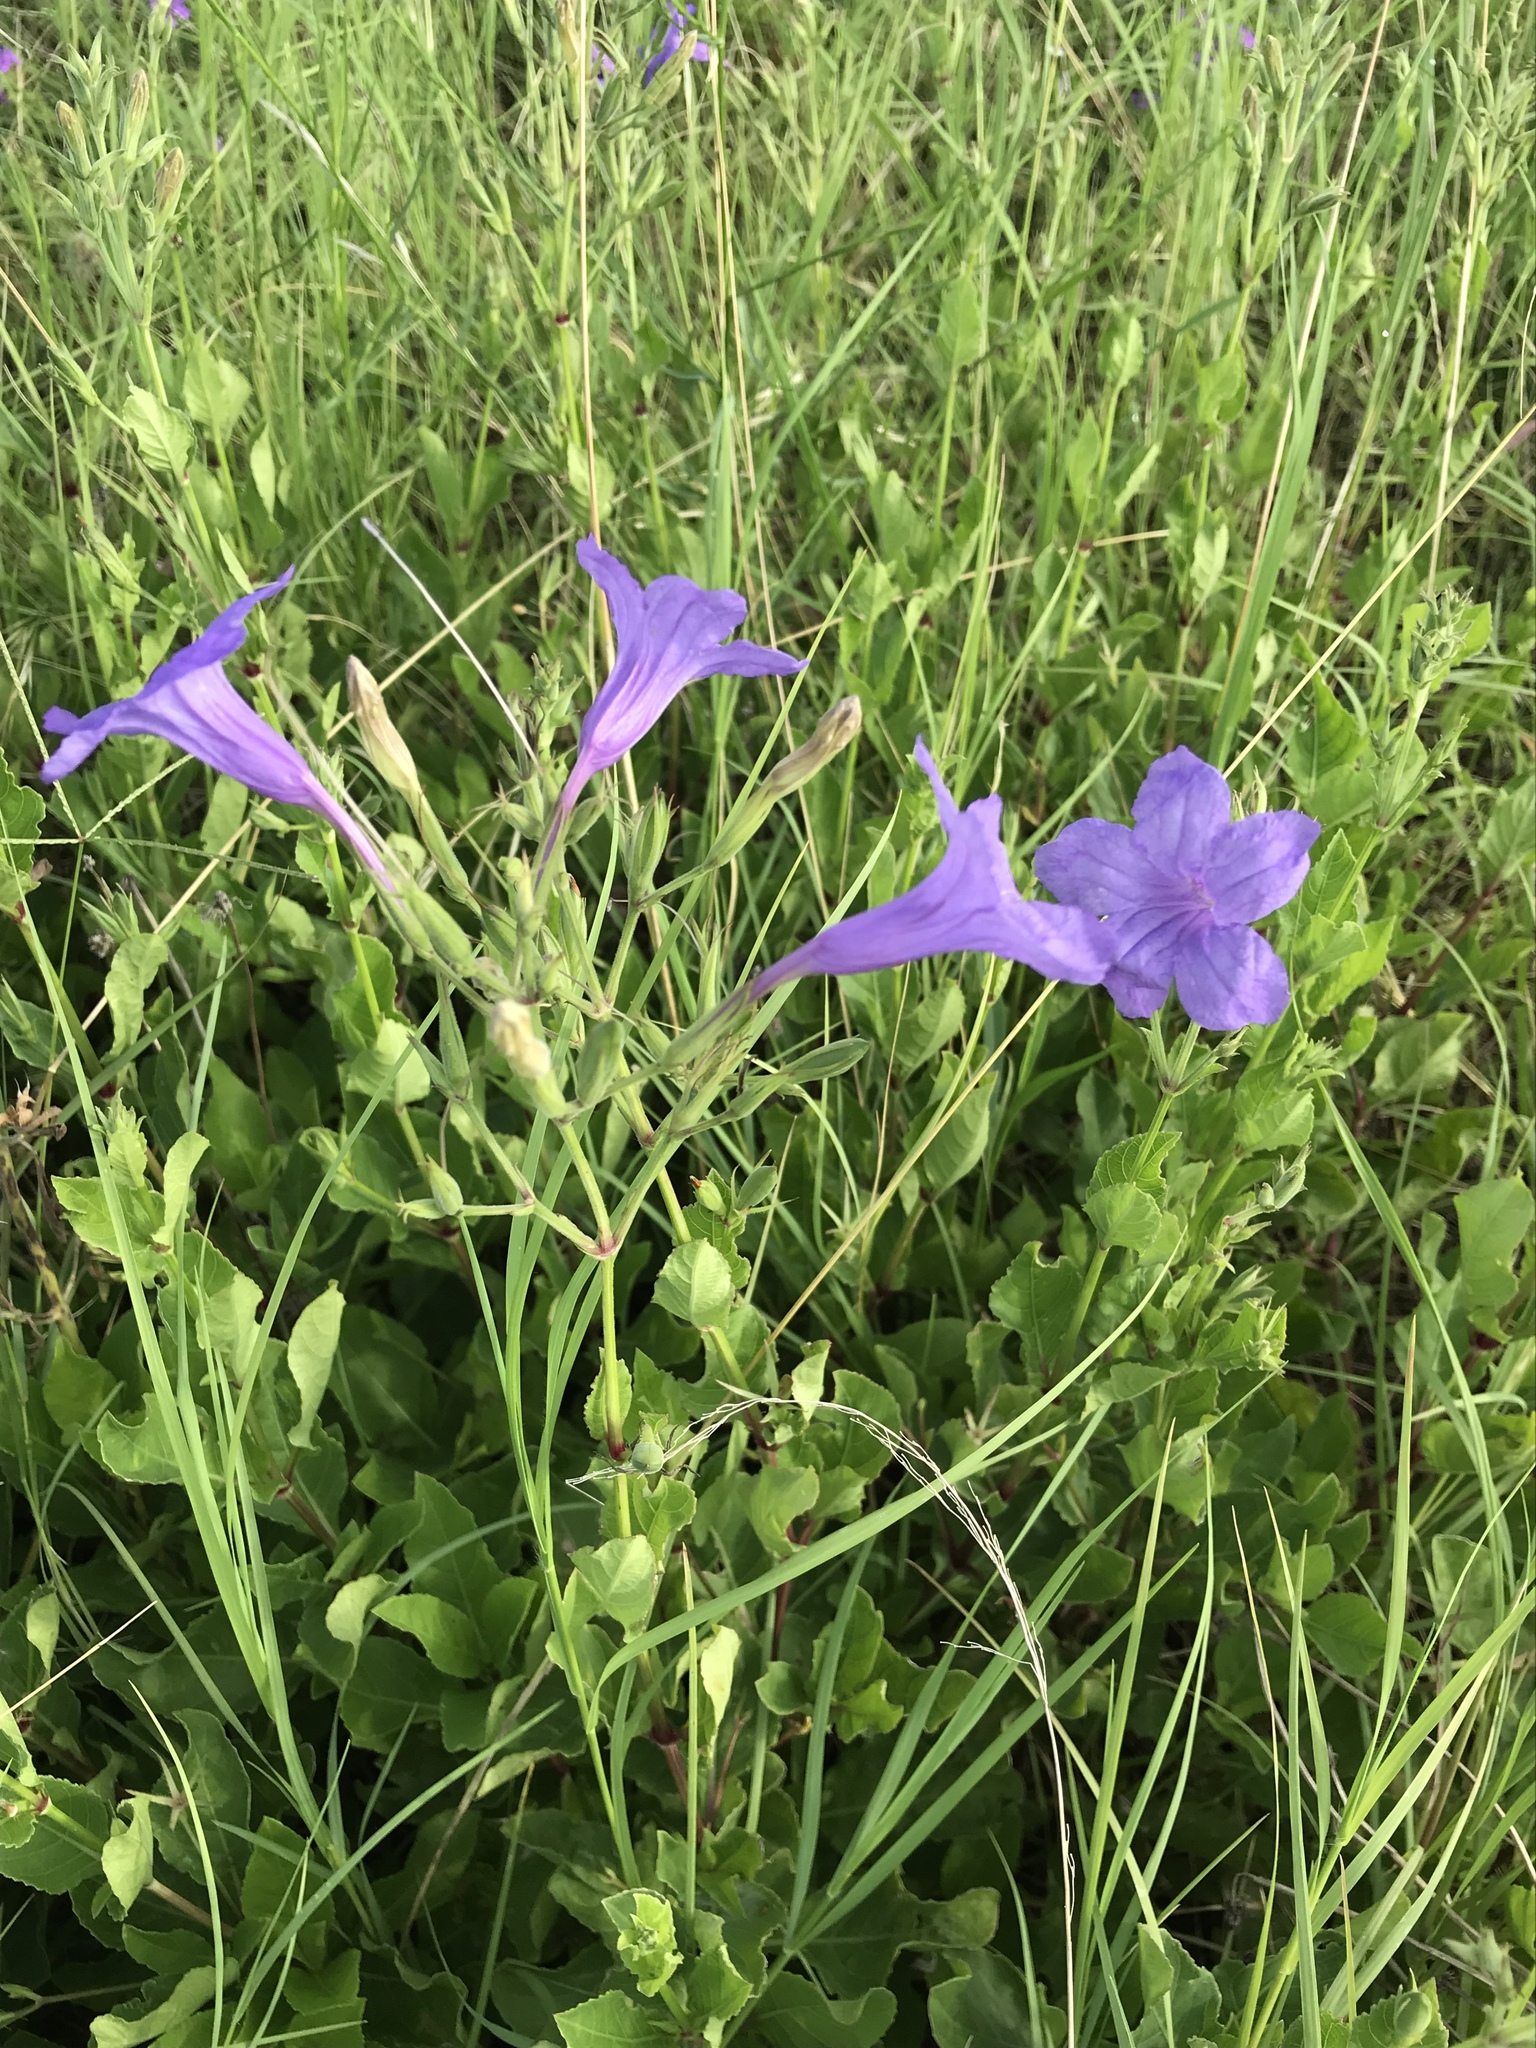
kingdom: Plantae
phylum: Tracheophyta
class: Magnoliopsida
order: Lamiales
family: Acanthaceae
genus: Ruellia
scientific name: Ruellia ciliatiflora
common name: Hairyflower wild petunia
